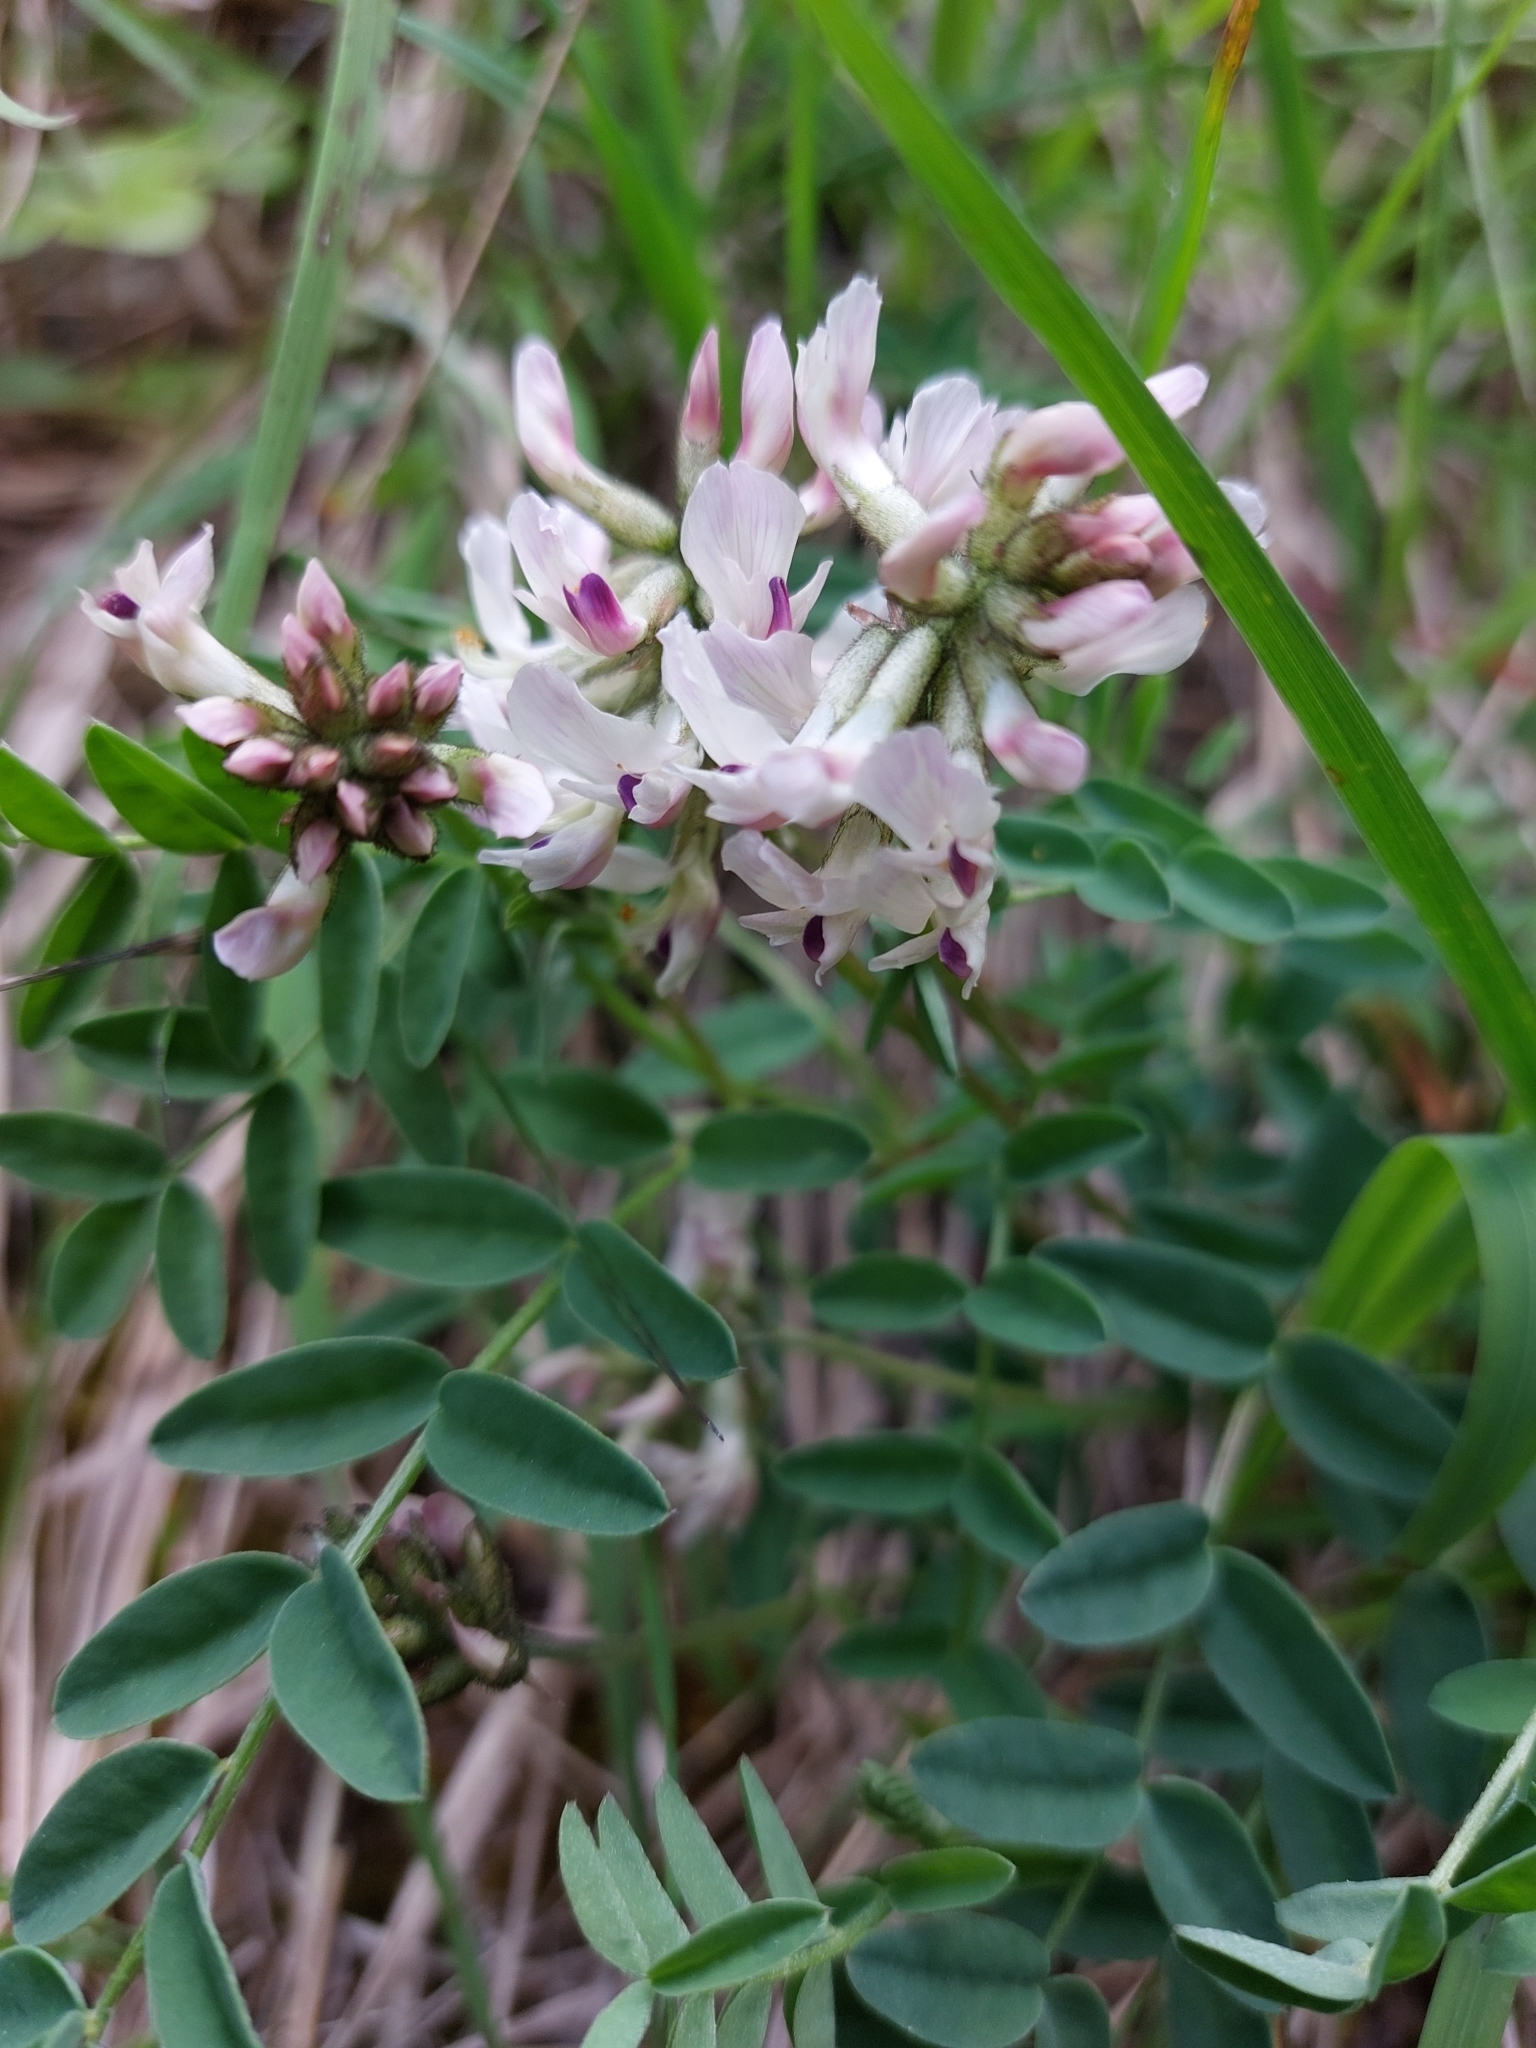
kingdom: Plantae
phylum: Tracheophyta
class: Magnoliopsida
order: Fabales
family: Fabaceae
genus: Astragalus
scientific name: Astragalus australis
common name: Indian milk-vetch
